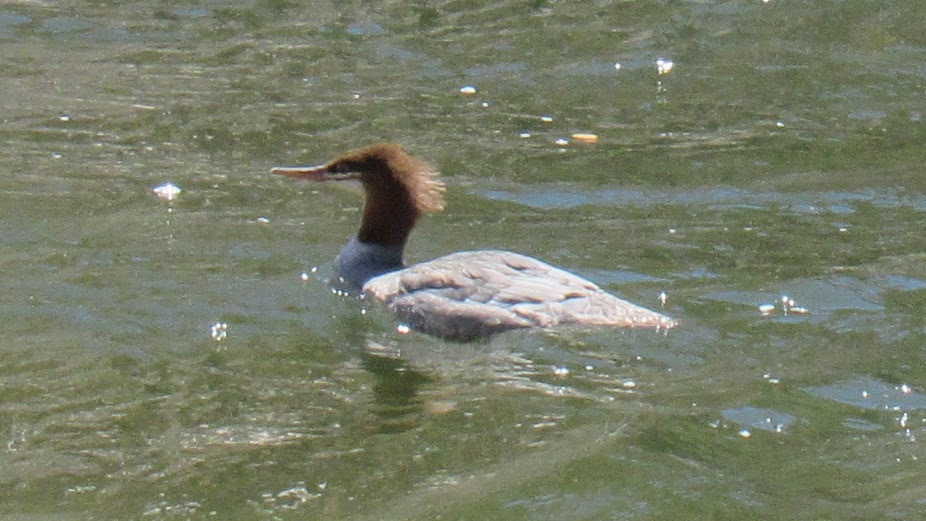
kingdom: Animalia
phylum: Chordata
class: Aves
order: Anseriformes
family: Anatidae
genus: Mergus
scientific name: Mergus merganser
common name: Common merganser
